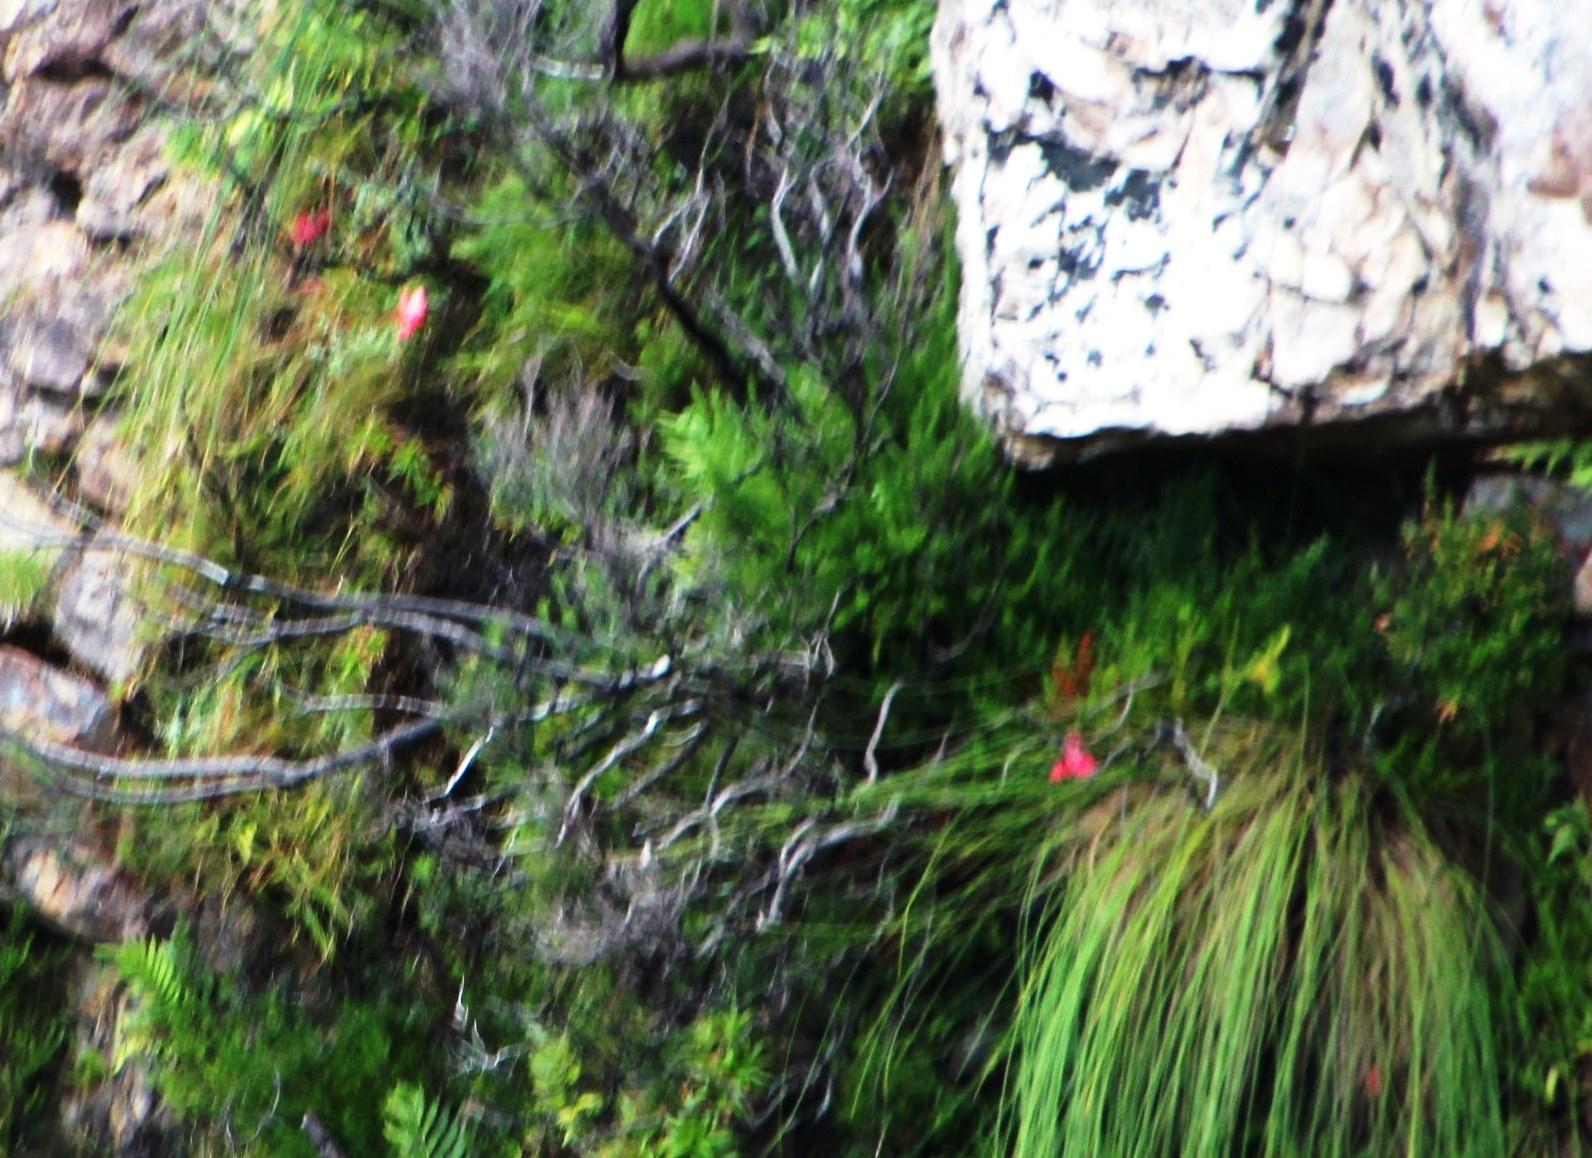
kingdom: Plantae
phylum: Tracheophyta
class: Liliopsida
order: Asparagales
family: Orchidaceae
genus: Disa
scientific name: Disa uniflora
